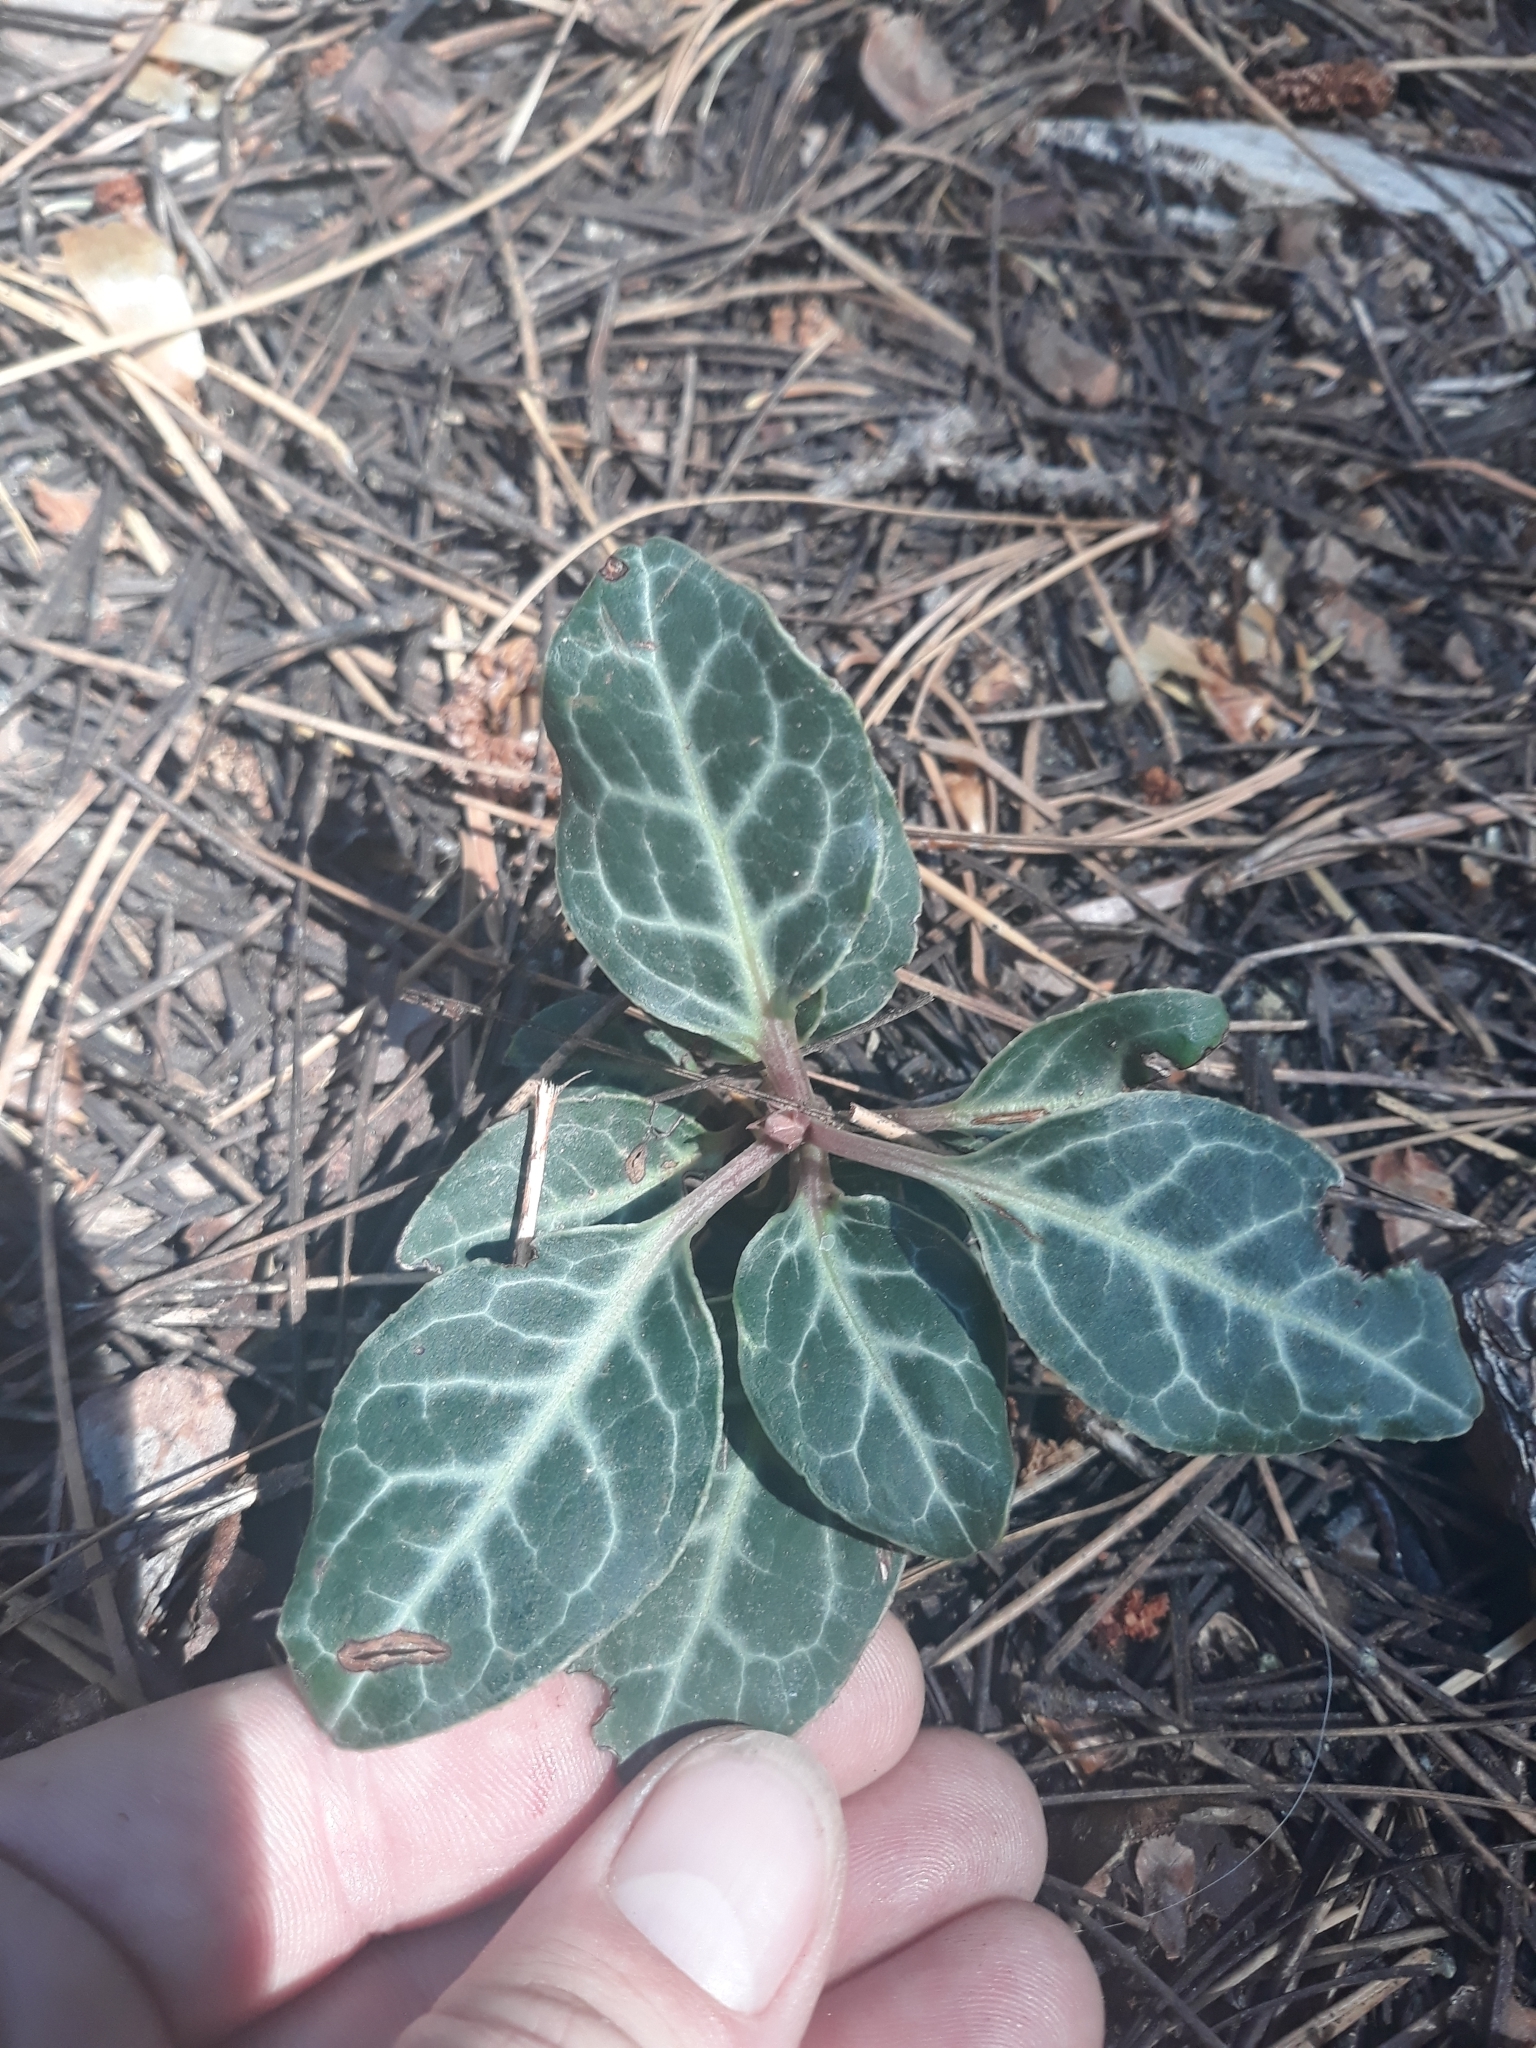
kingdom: Plantae
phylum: Tracheophyta
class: Magnoliopsida
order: Ericales
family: Ericaceae
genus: Pyrola
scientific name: Pyrola picta
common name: White-vein wintergreen
